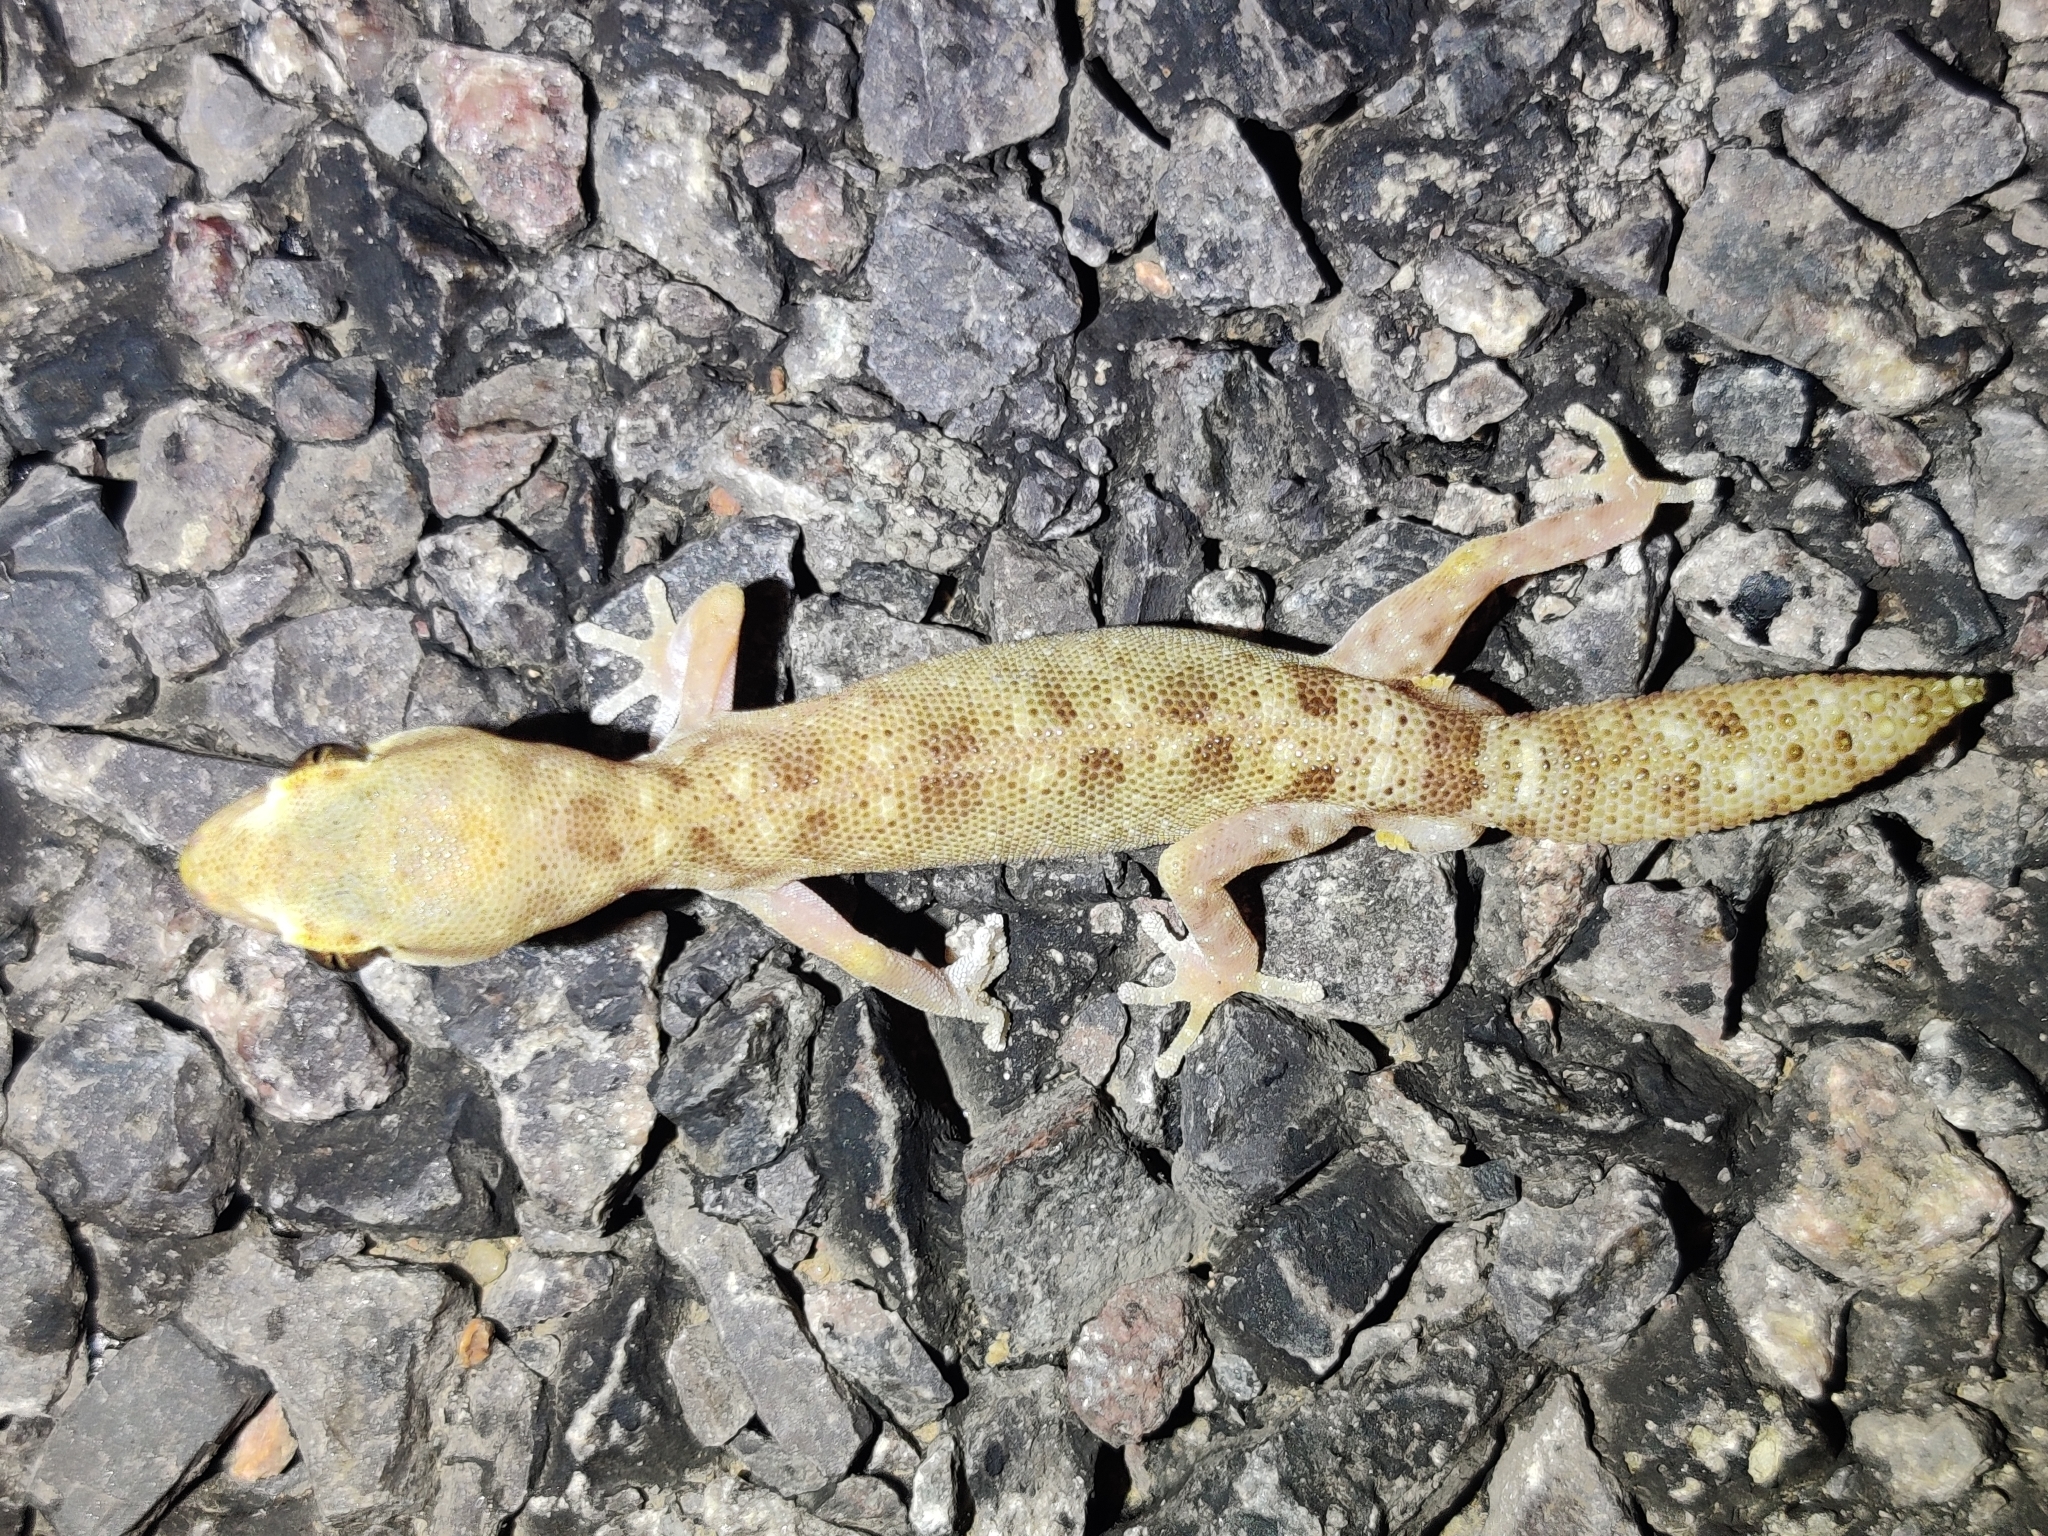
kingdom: Animalia
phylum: Chordata
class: Squamata
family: Diplodactylidae
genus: Diplodactylus
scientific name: Diplodactylus tessellatus
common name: Tesselated gecko
